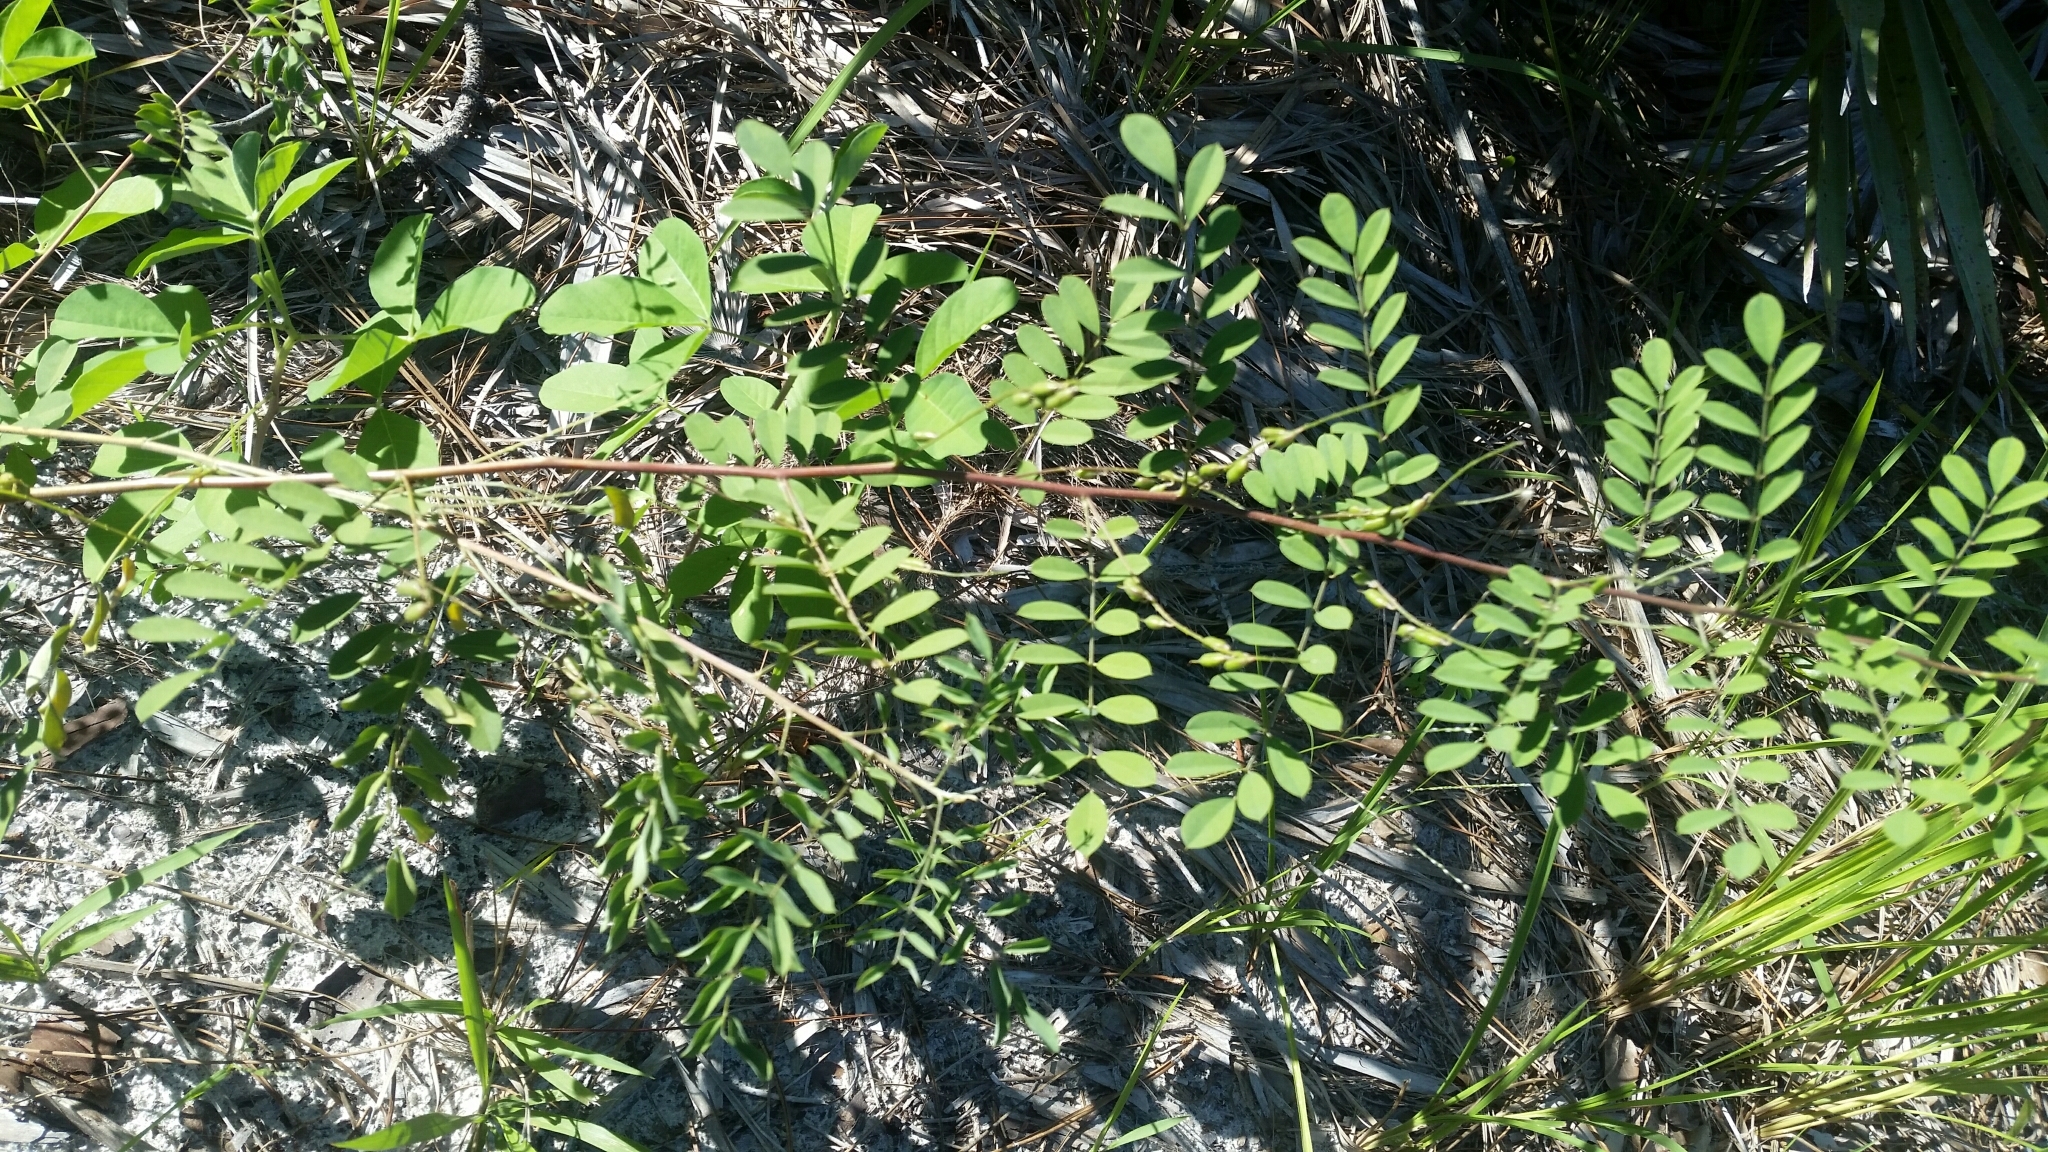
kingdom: Plantae
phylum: Tracheophyta
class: Magnoliopsida
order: Fabales
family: Fabaceae
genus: Indigofera
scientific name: Indigofera caroliniana
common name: Wild indigo
